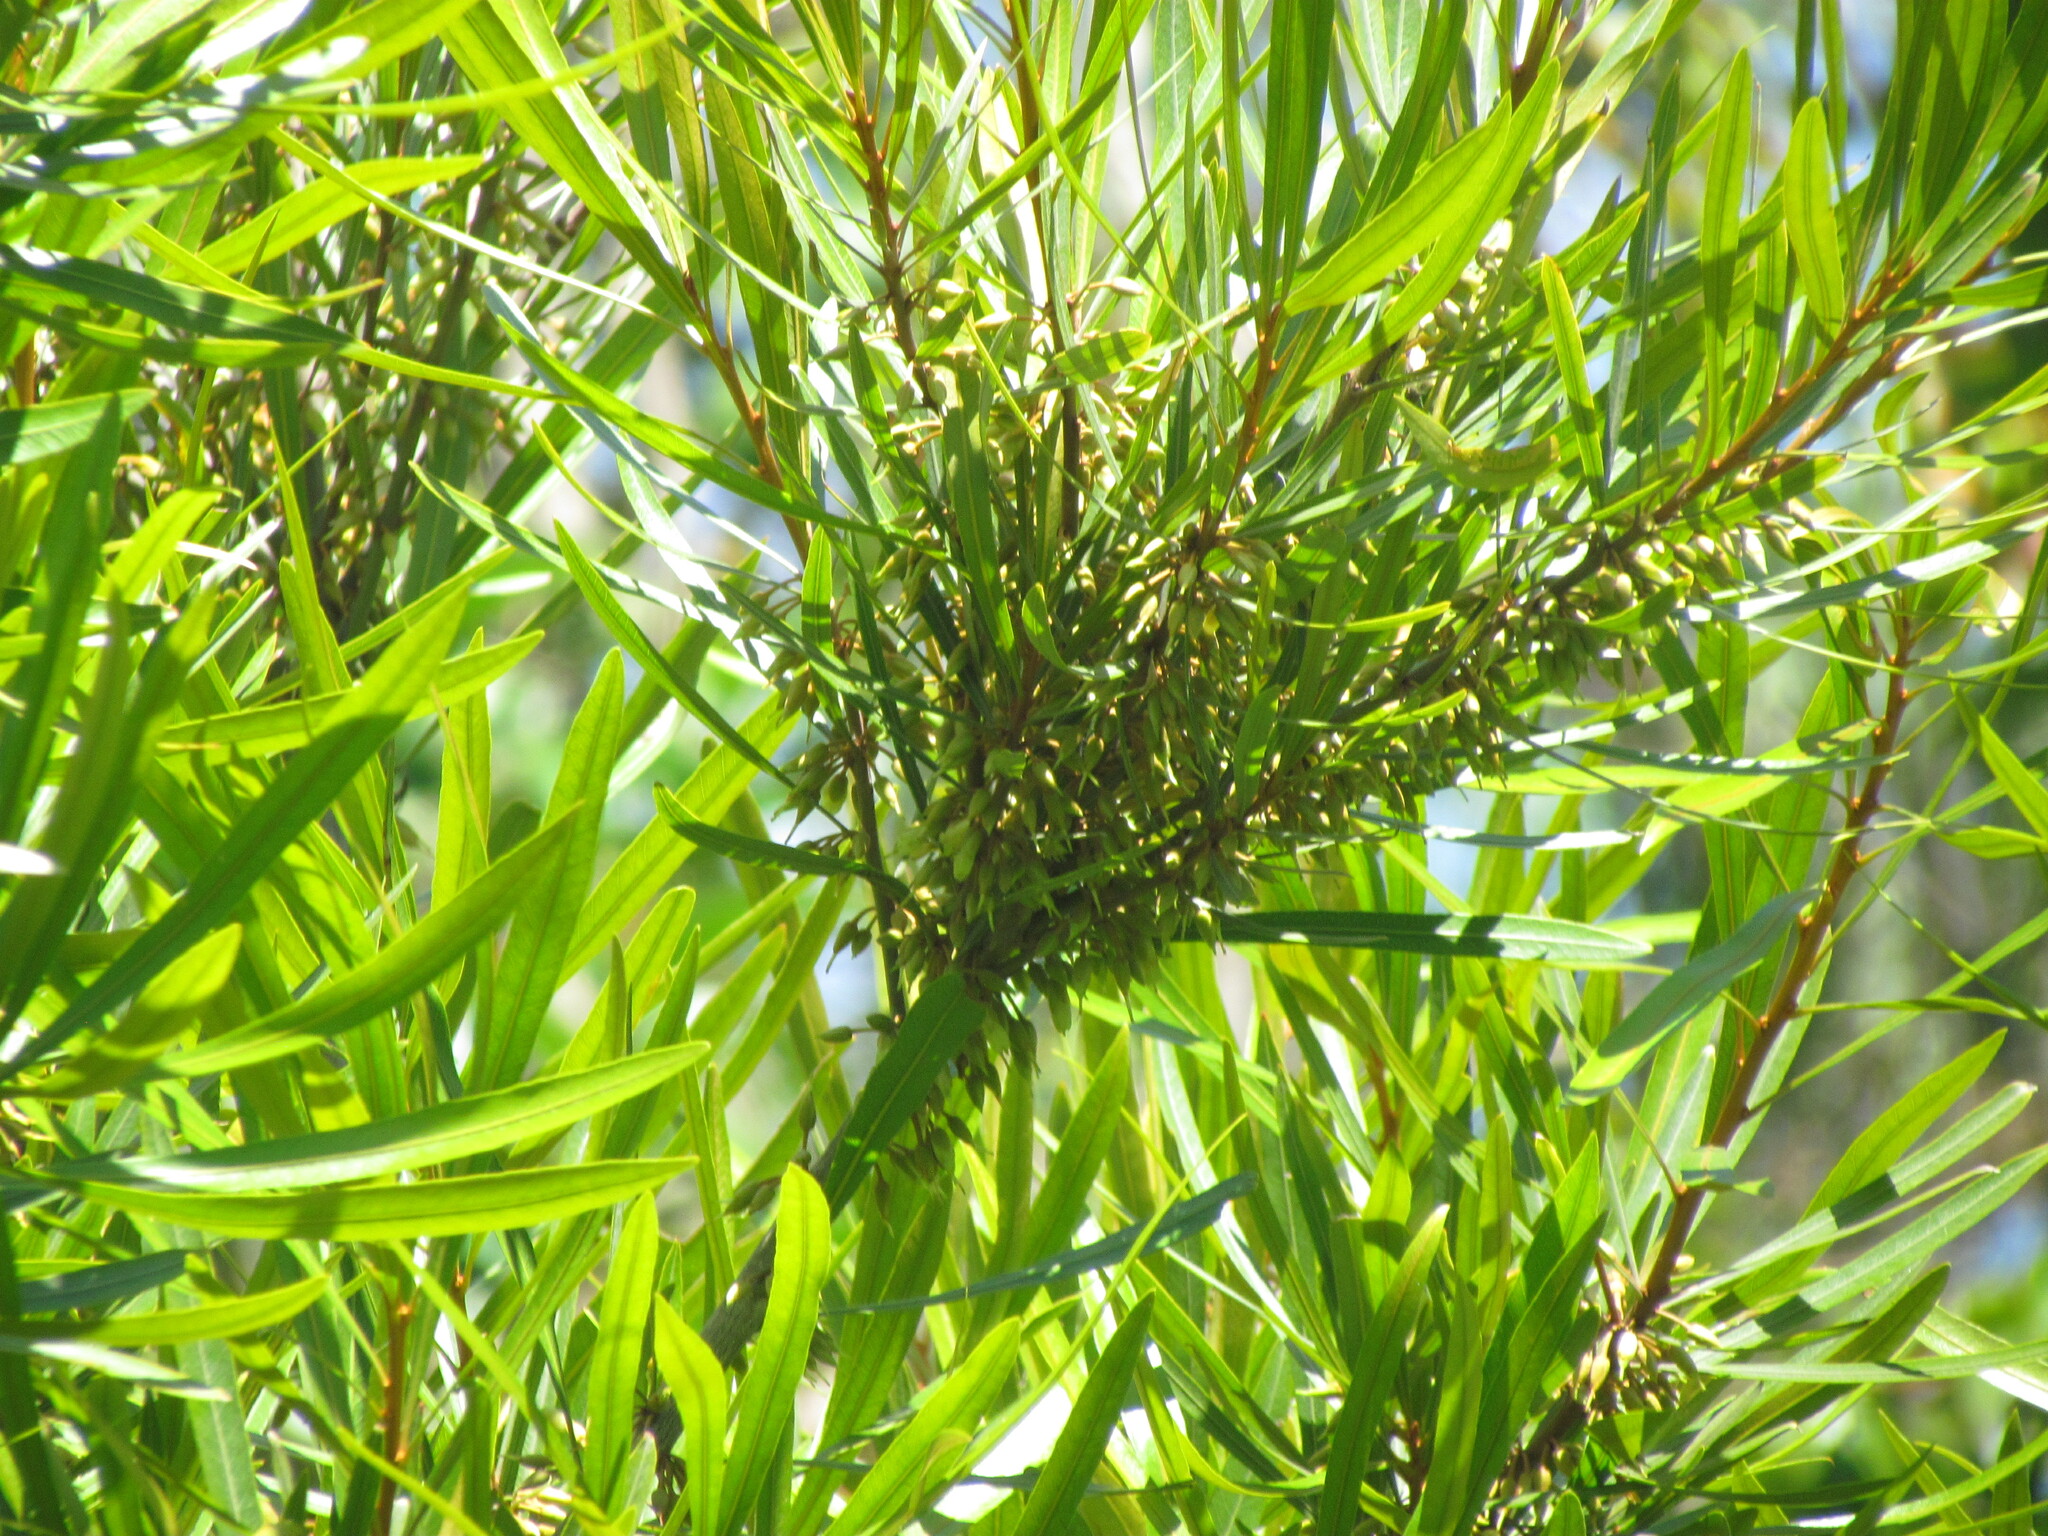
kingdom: Plantae
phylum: Tracheophyta
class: Magnoliopsida
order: Ericales
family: Sapotaceae
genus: Labatia
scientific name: Labatia salicifolia
